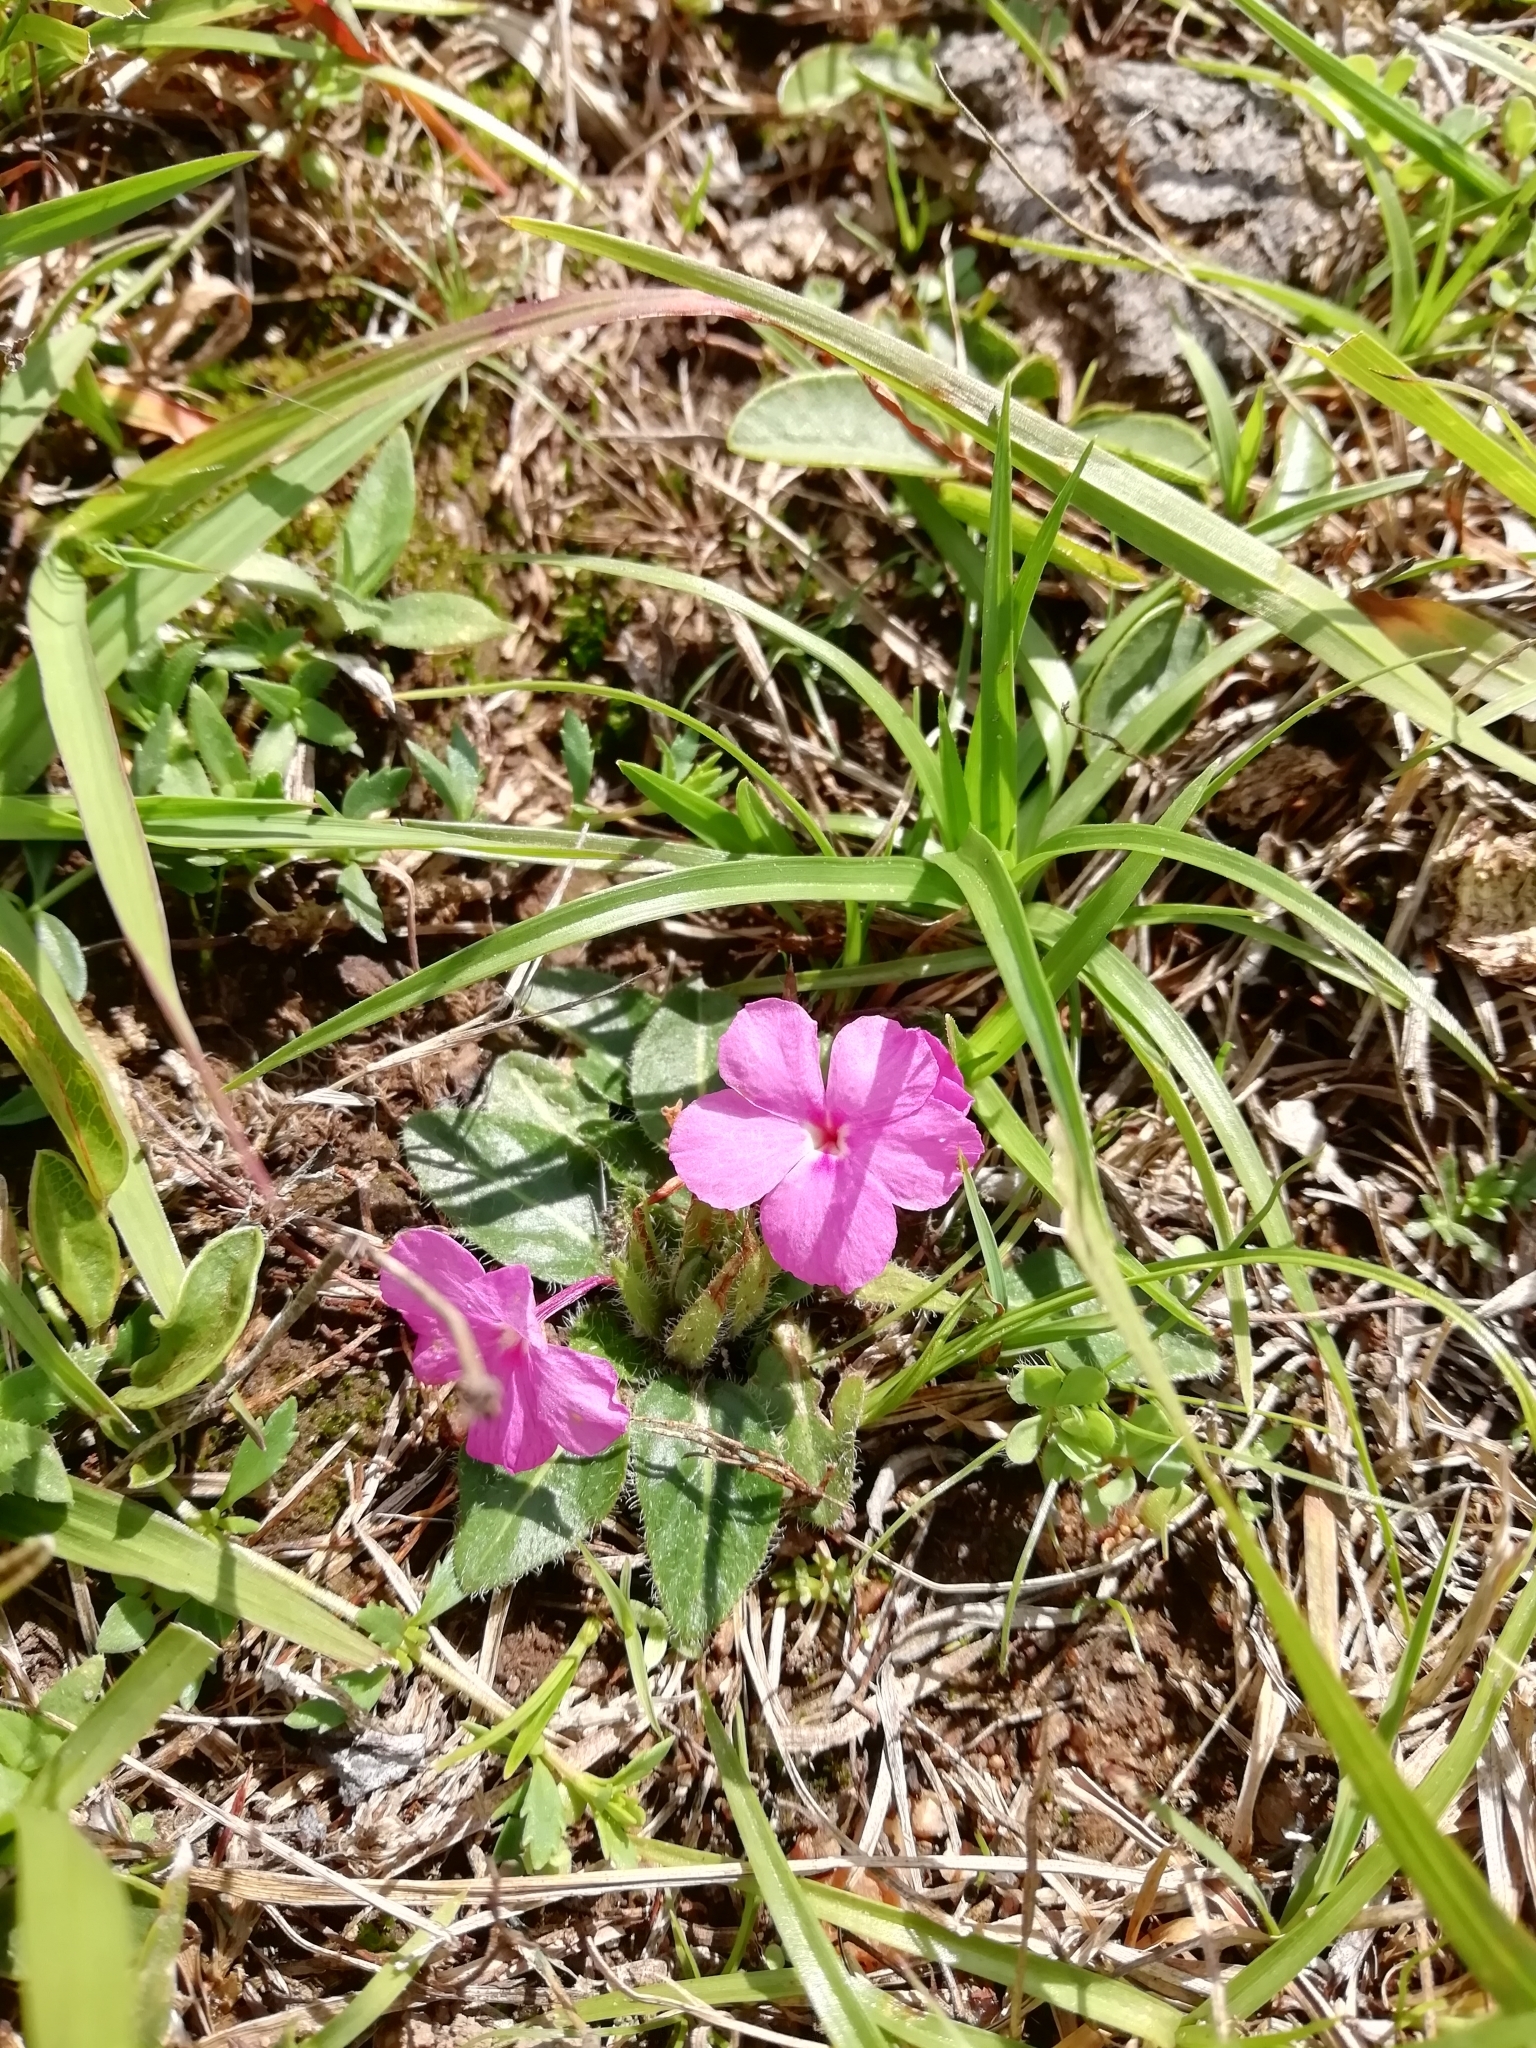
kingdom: Plantae
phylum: Tracheophyta
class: Magnoliopsida
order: Lamiales
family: Acanthaceae
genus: Stenandrium
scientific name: Stenandrium dulce
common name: Pinklet
